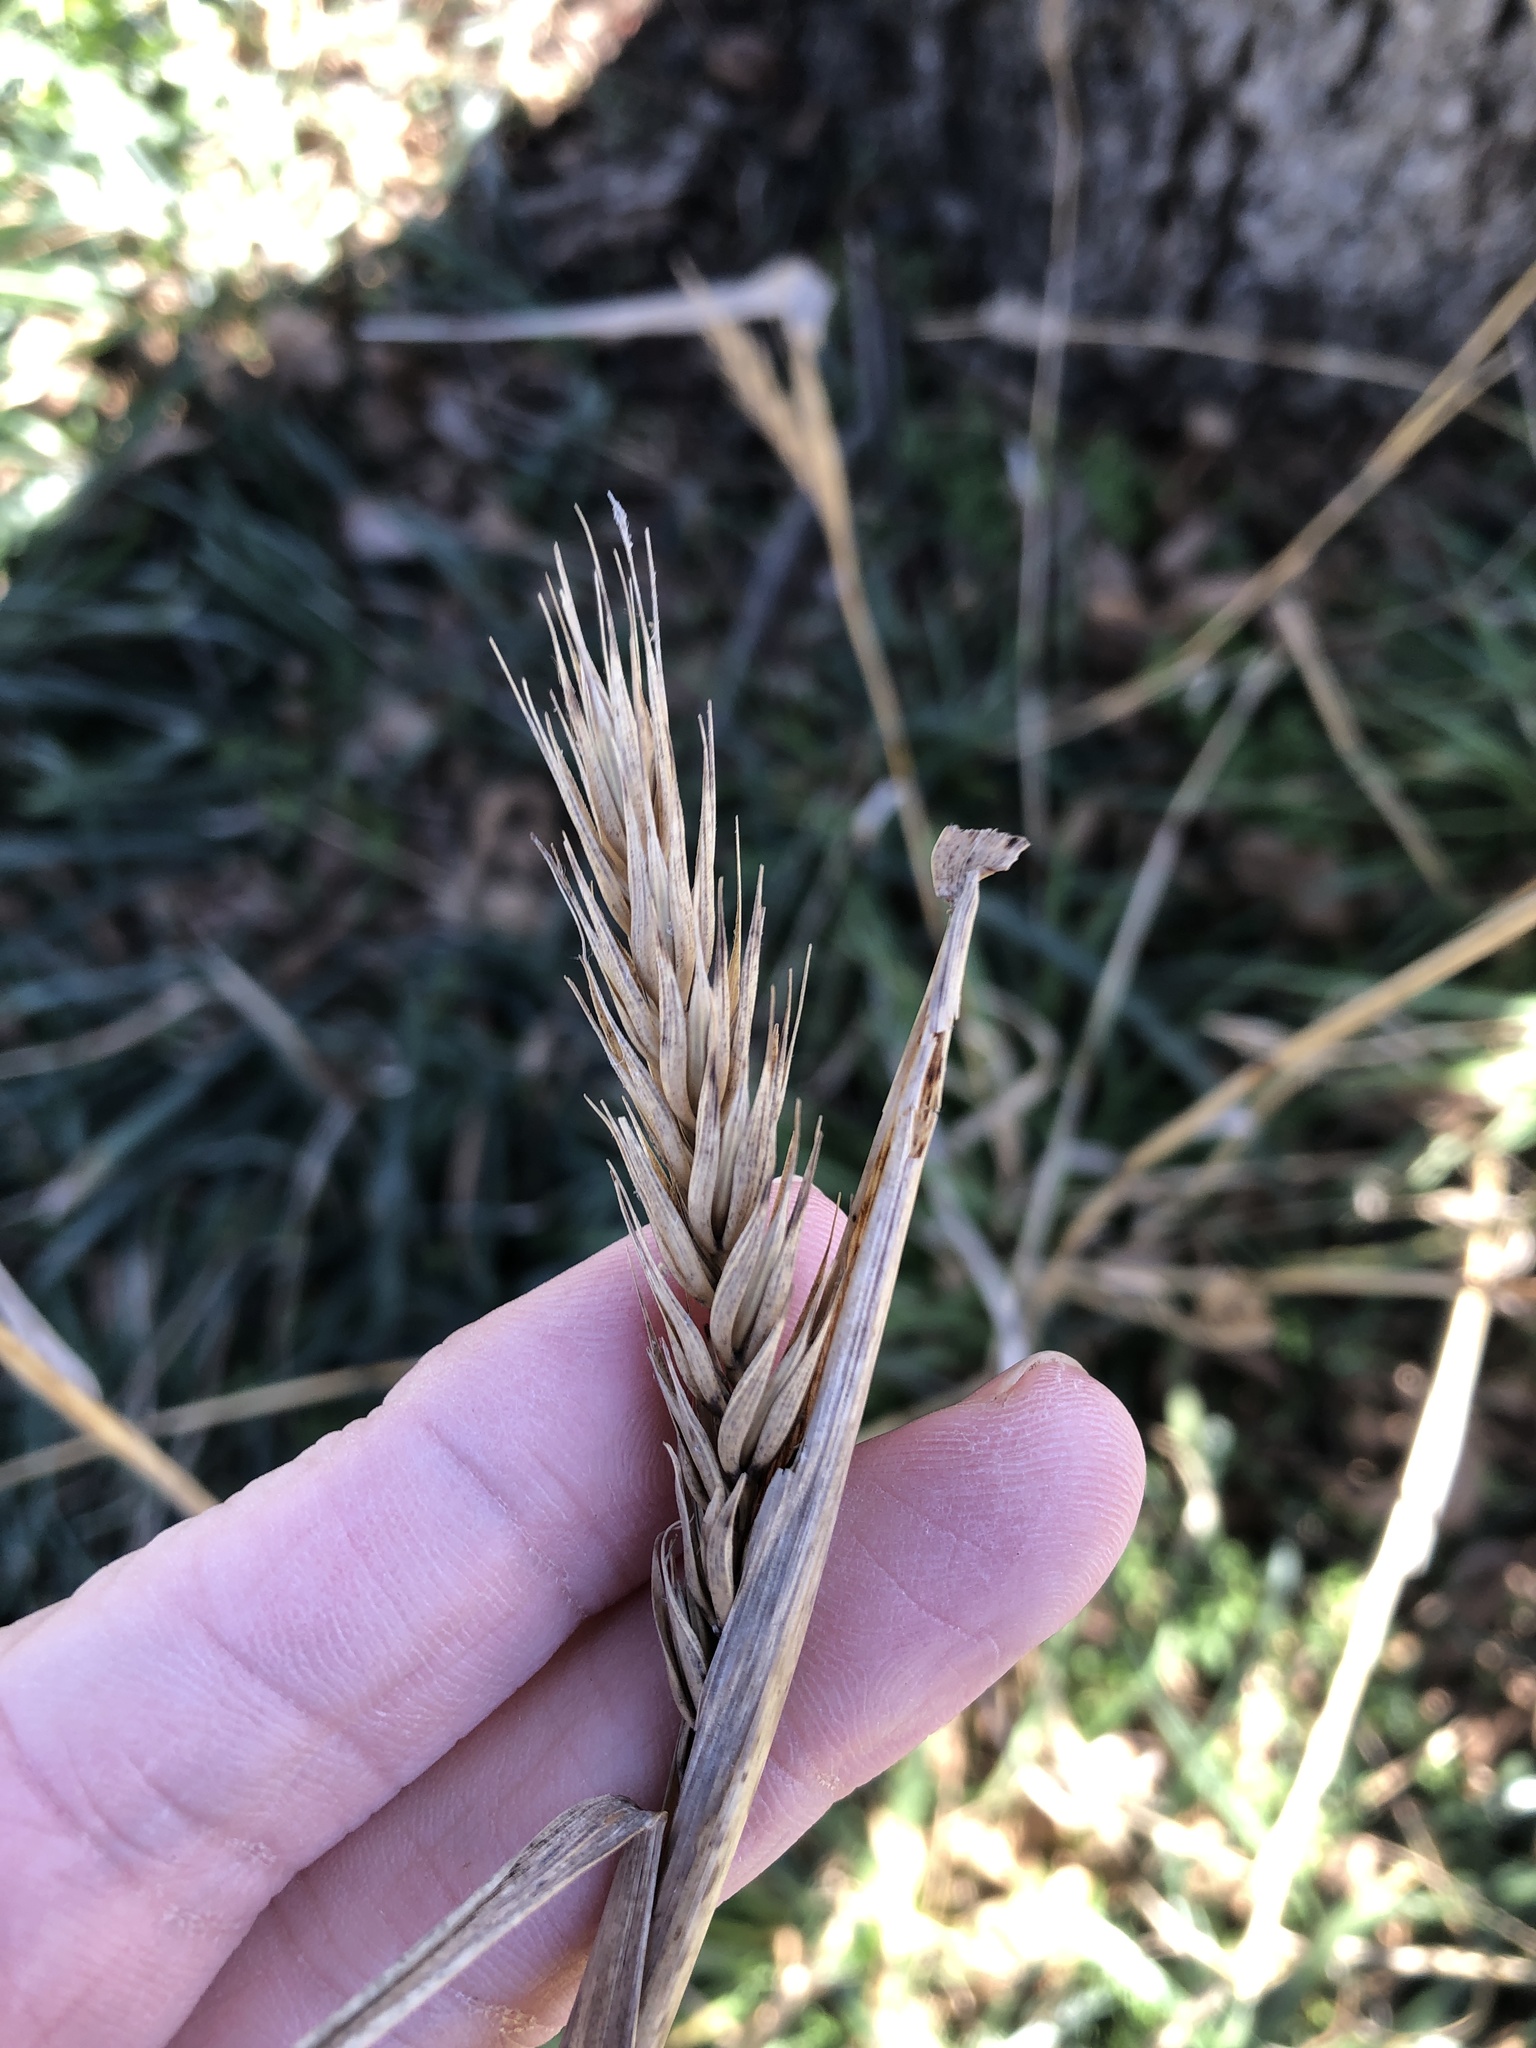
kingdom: Plantae
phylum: Tracheophyta
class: Liliopsida
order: Poales
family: Poaceae
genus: Elymus
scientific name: Elymus virginicus
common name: Common eastern wildrye
